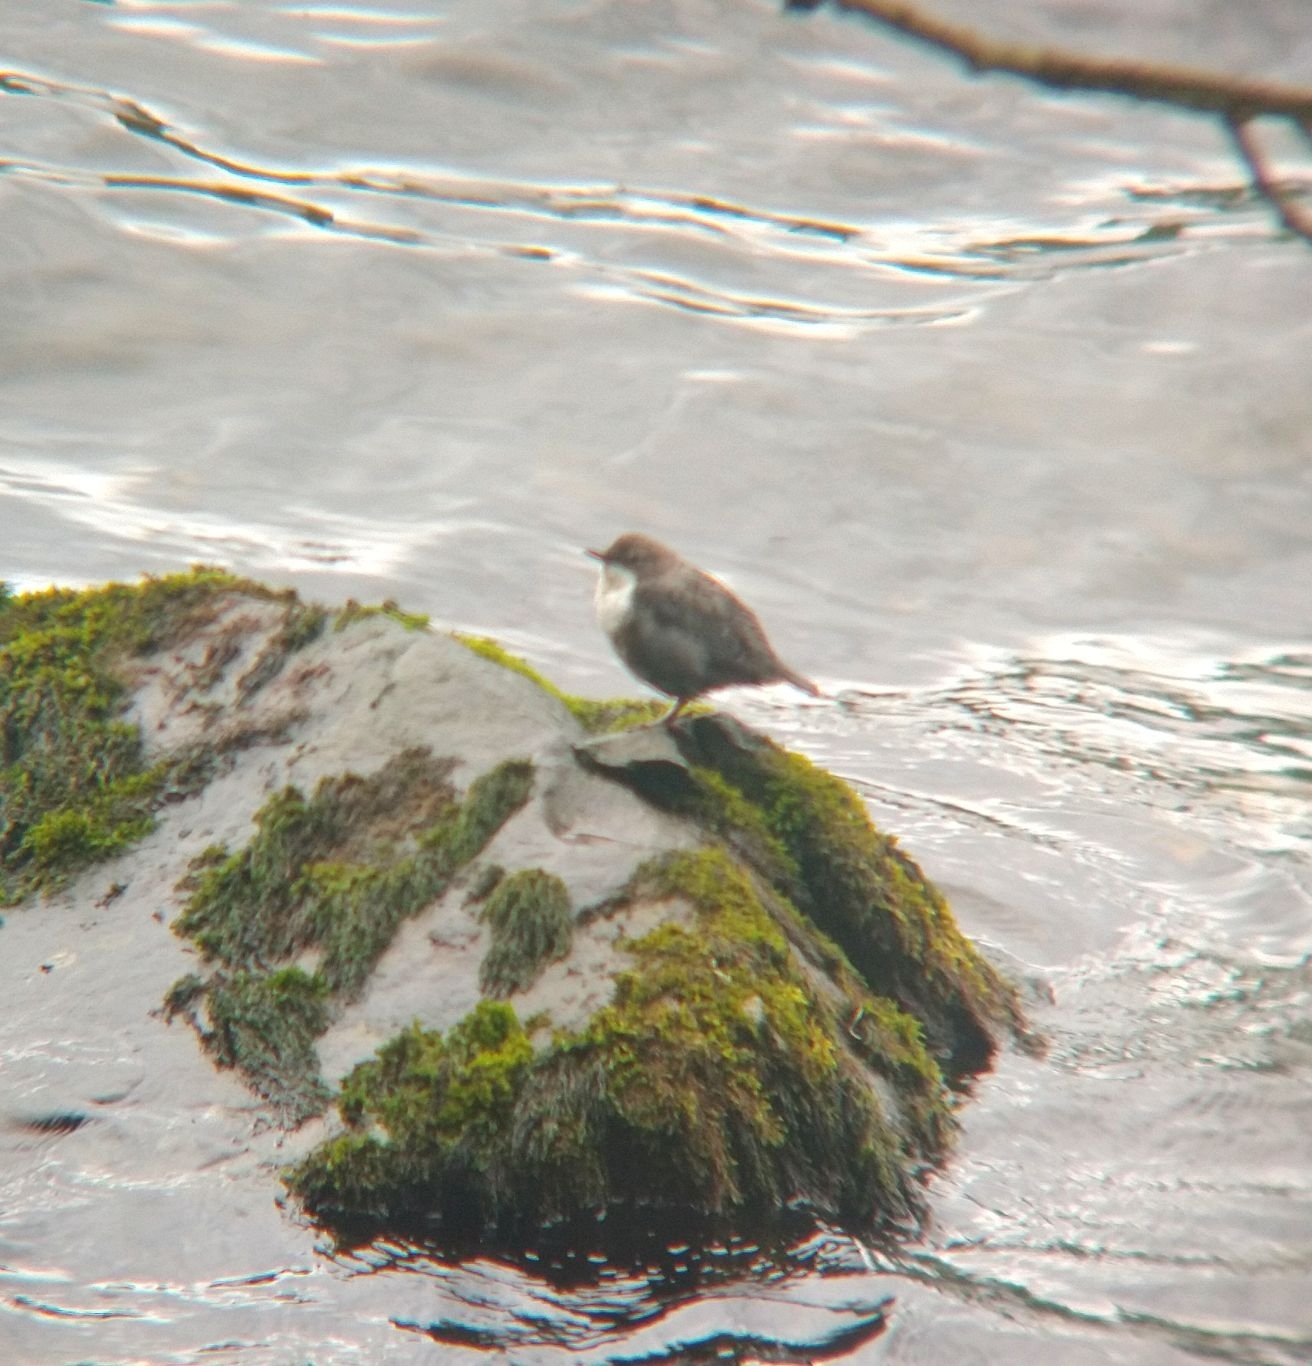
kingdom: Animalia
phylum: Chordata
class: Aves
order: Passeriformes
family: Cinclidae
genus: Cinclus
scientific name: Cinclus cinclus
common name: White-throated dipper
